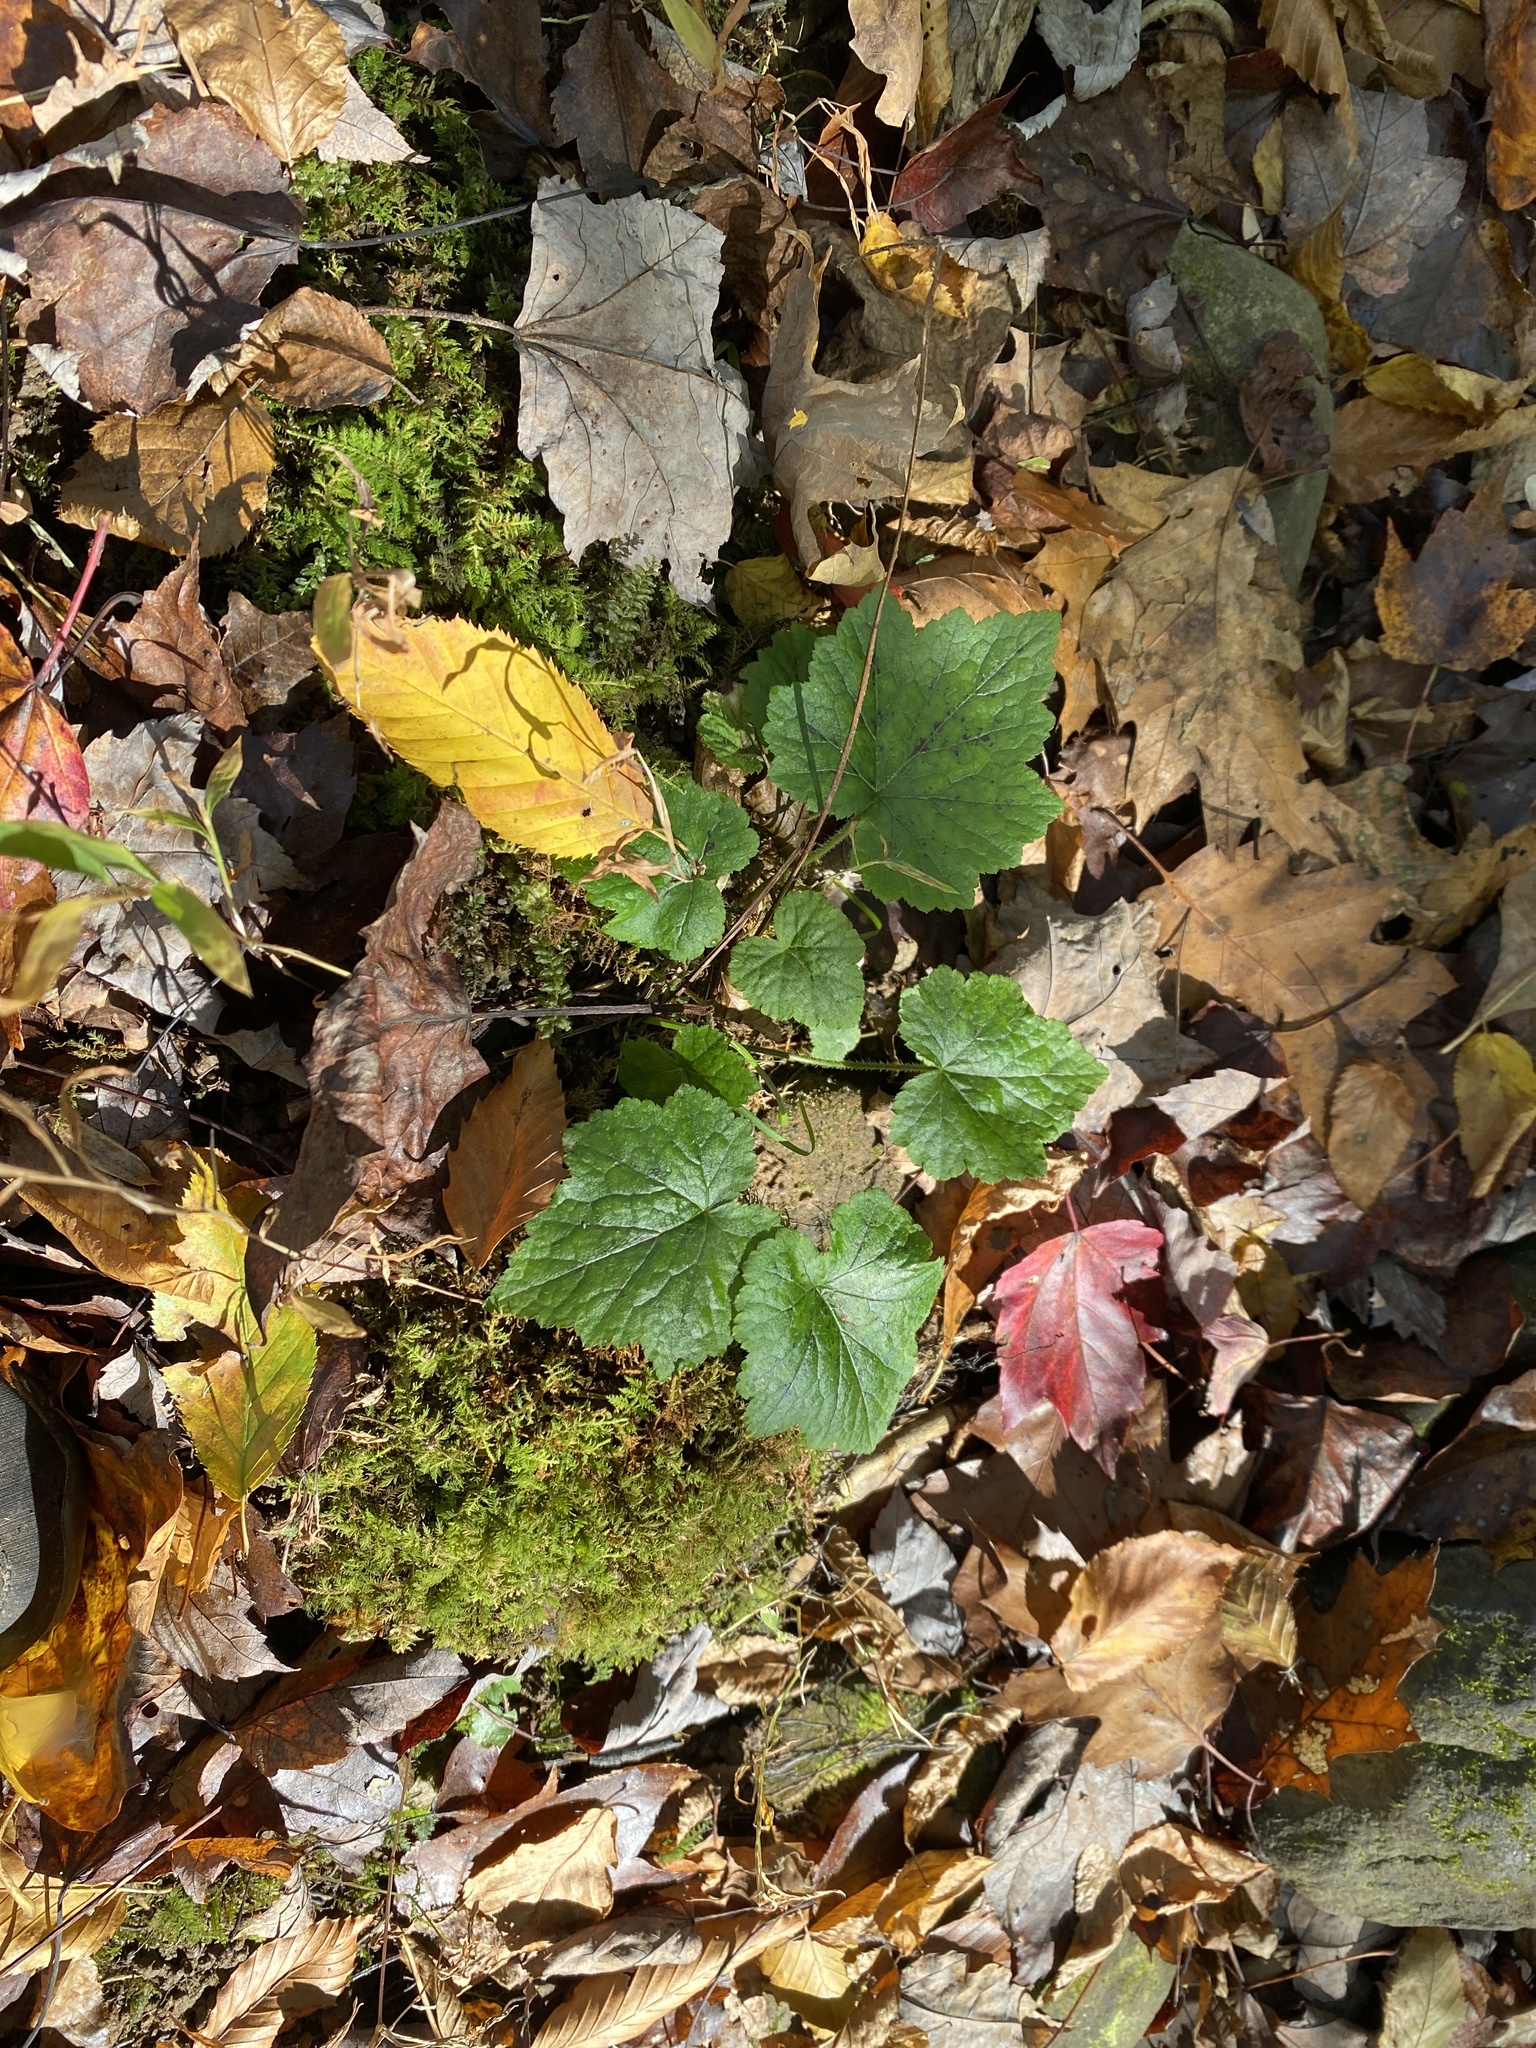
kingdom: Plantae
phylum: Tracheophyta
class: Magnoliopsida
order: Saxifragales
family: Saxifragaceae
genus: Tiarella
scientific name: Tiarella stolonifera
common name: Stoloniferous foamflower
